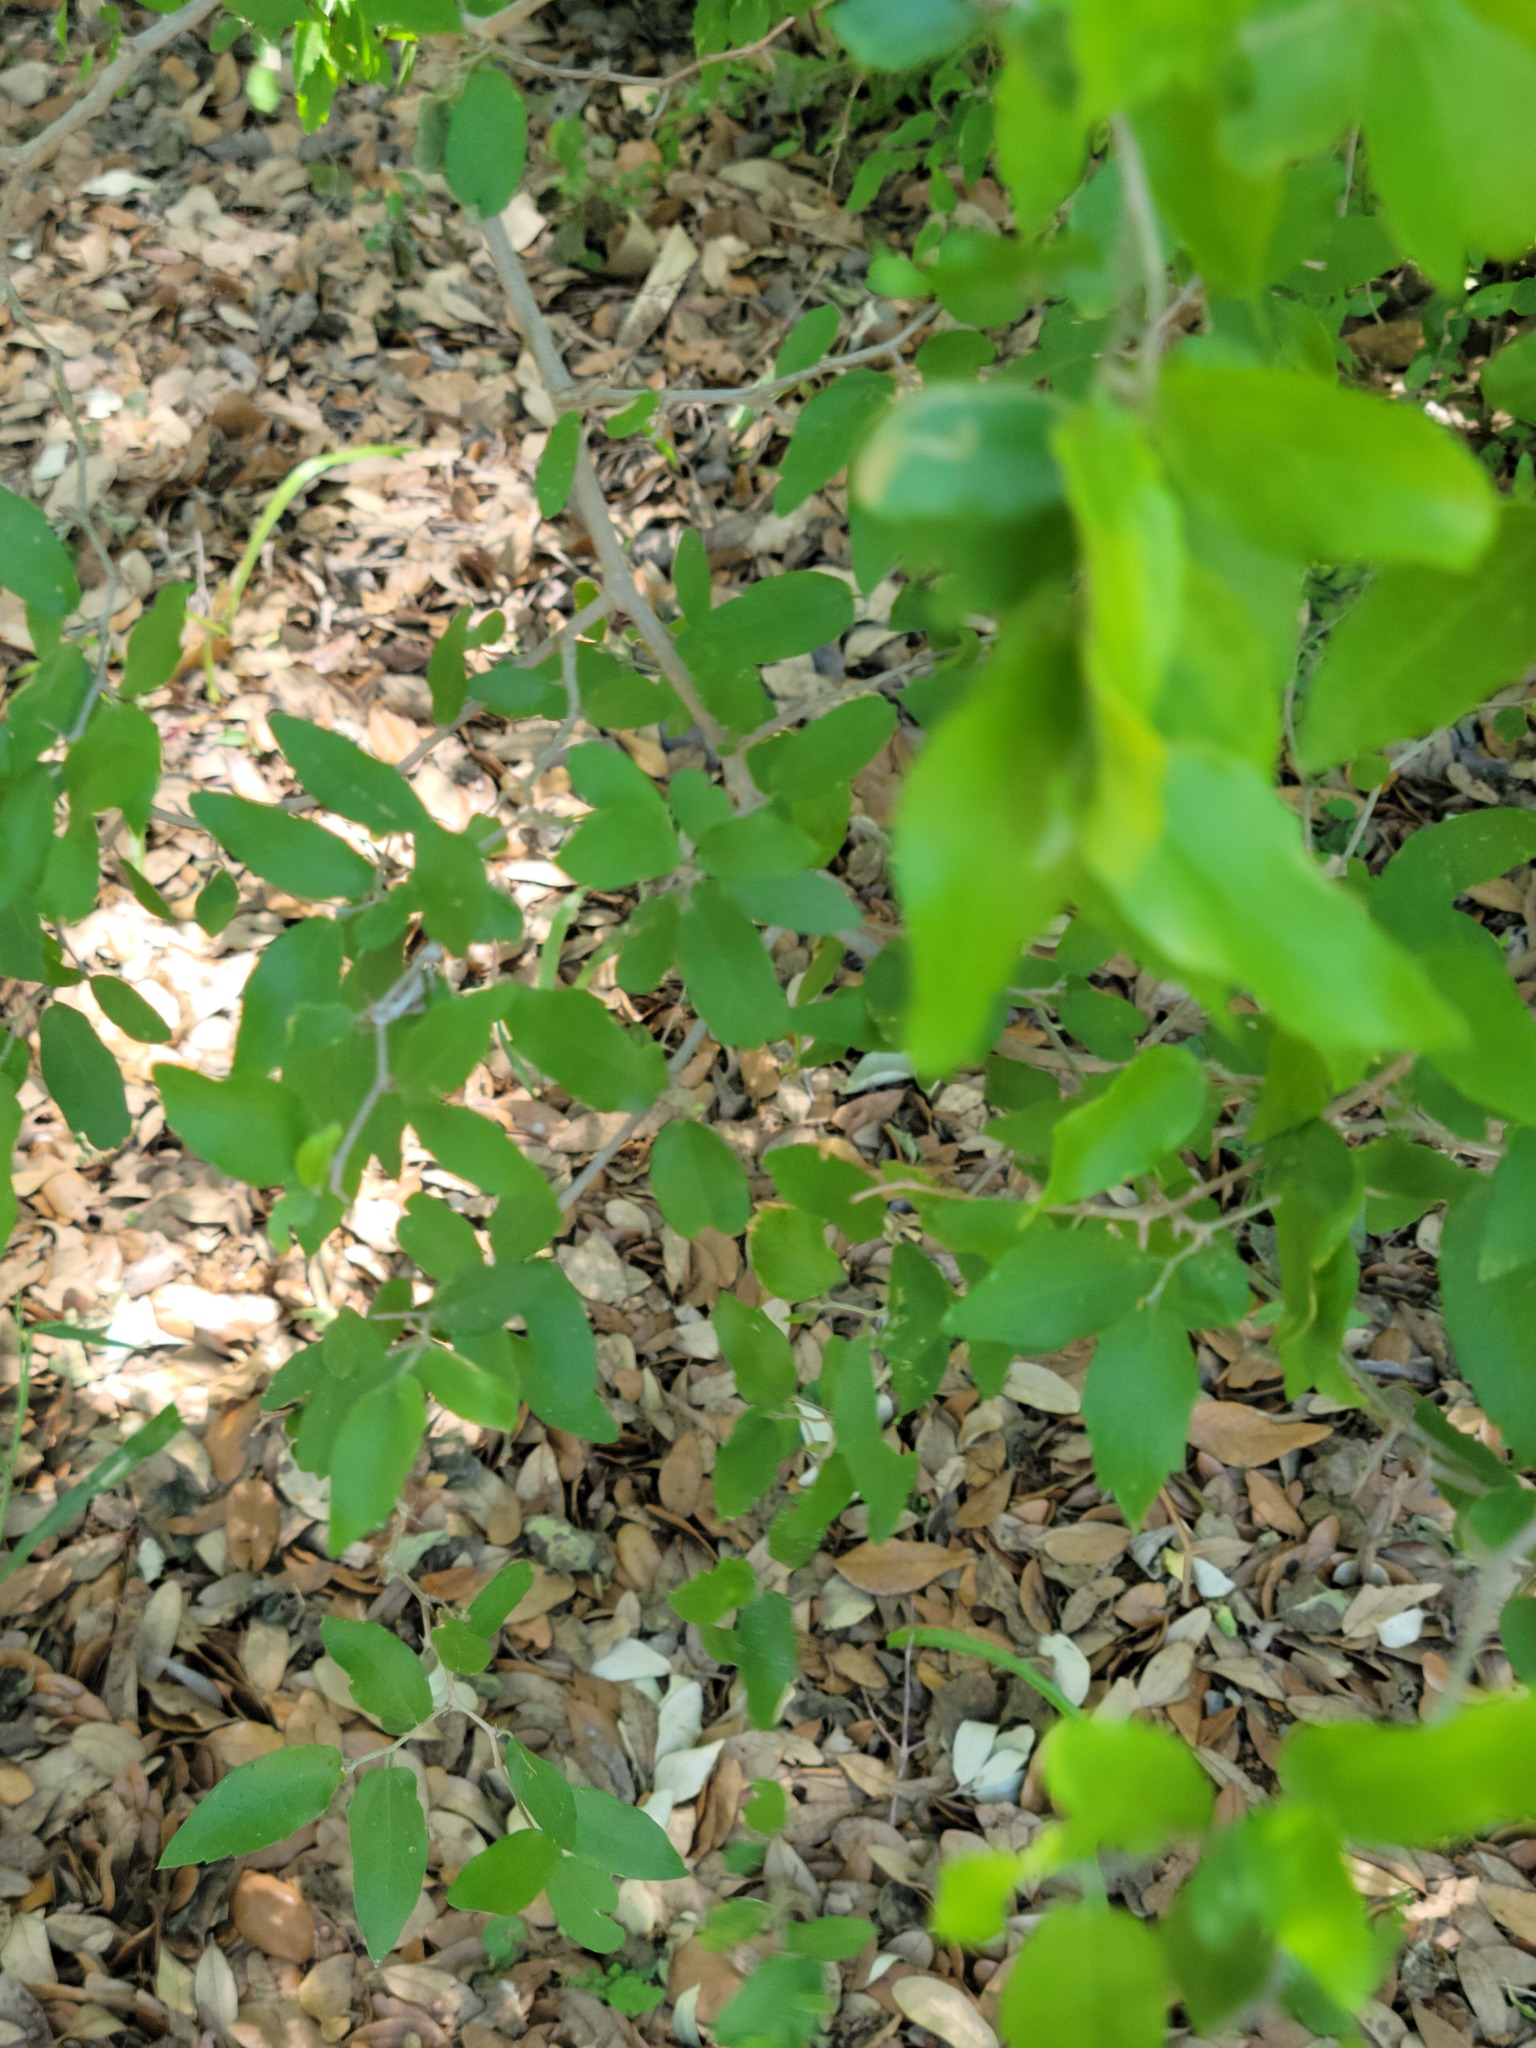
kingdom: Plantae
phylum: Tracheophyta
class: Magnoliopsida
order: Rosales
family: Cannabaceae
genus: Celtis
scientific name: Celtis pallida
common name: Desert hackberry
